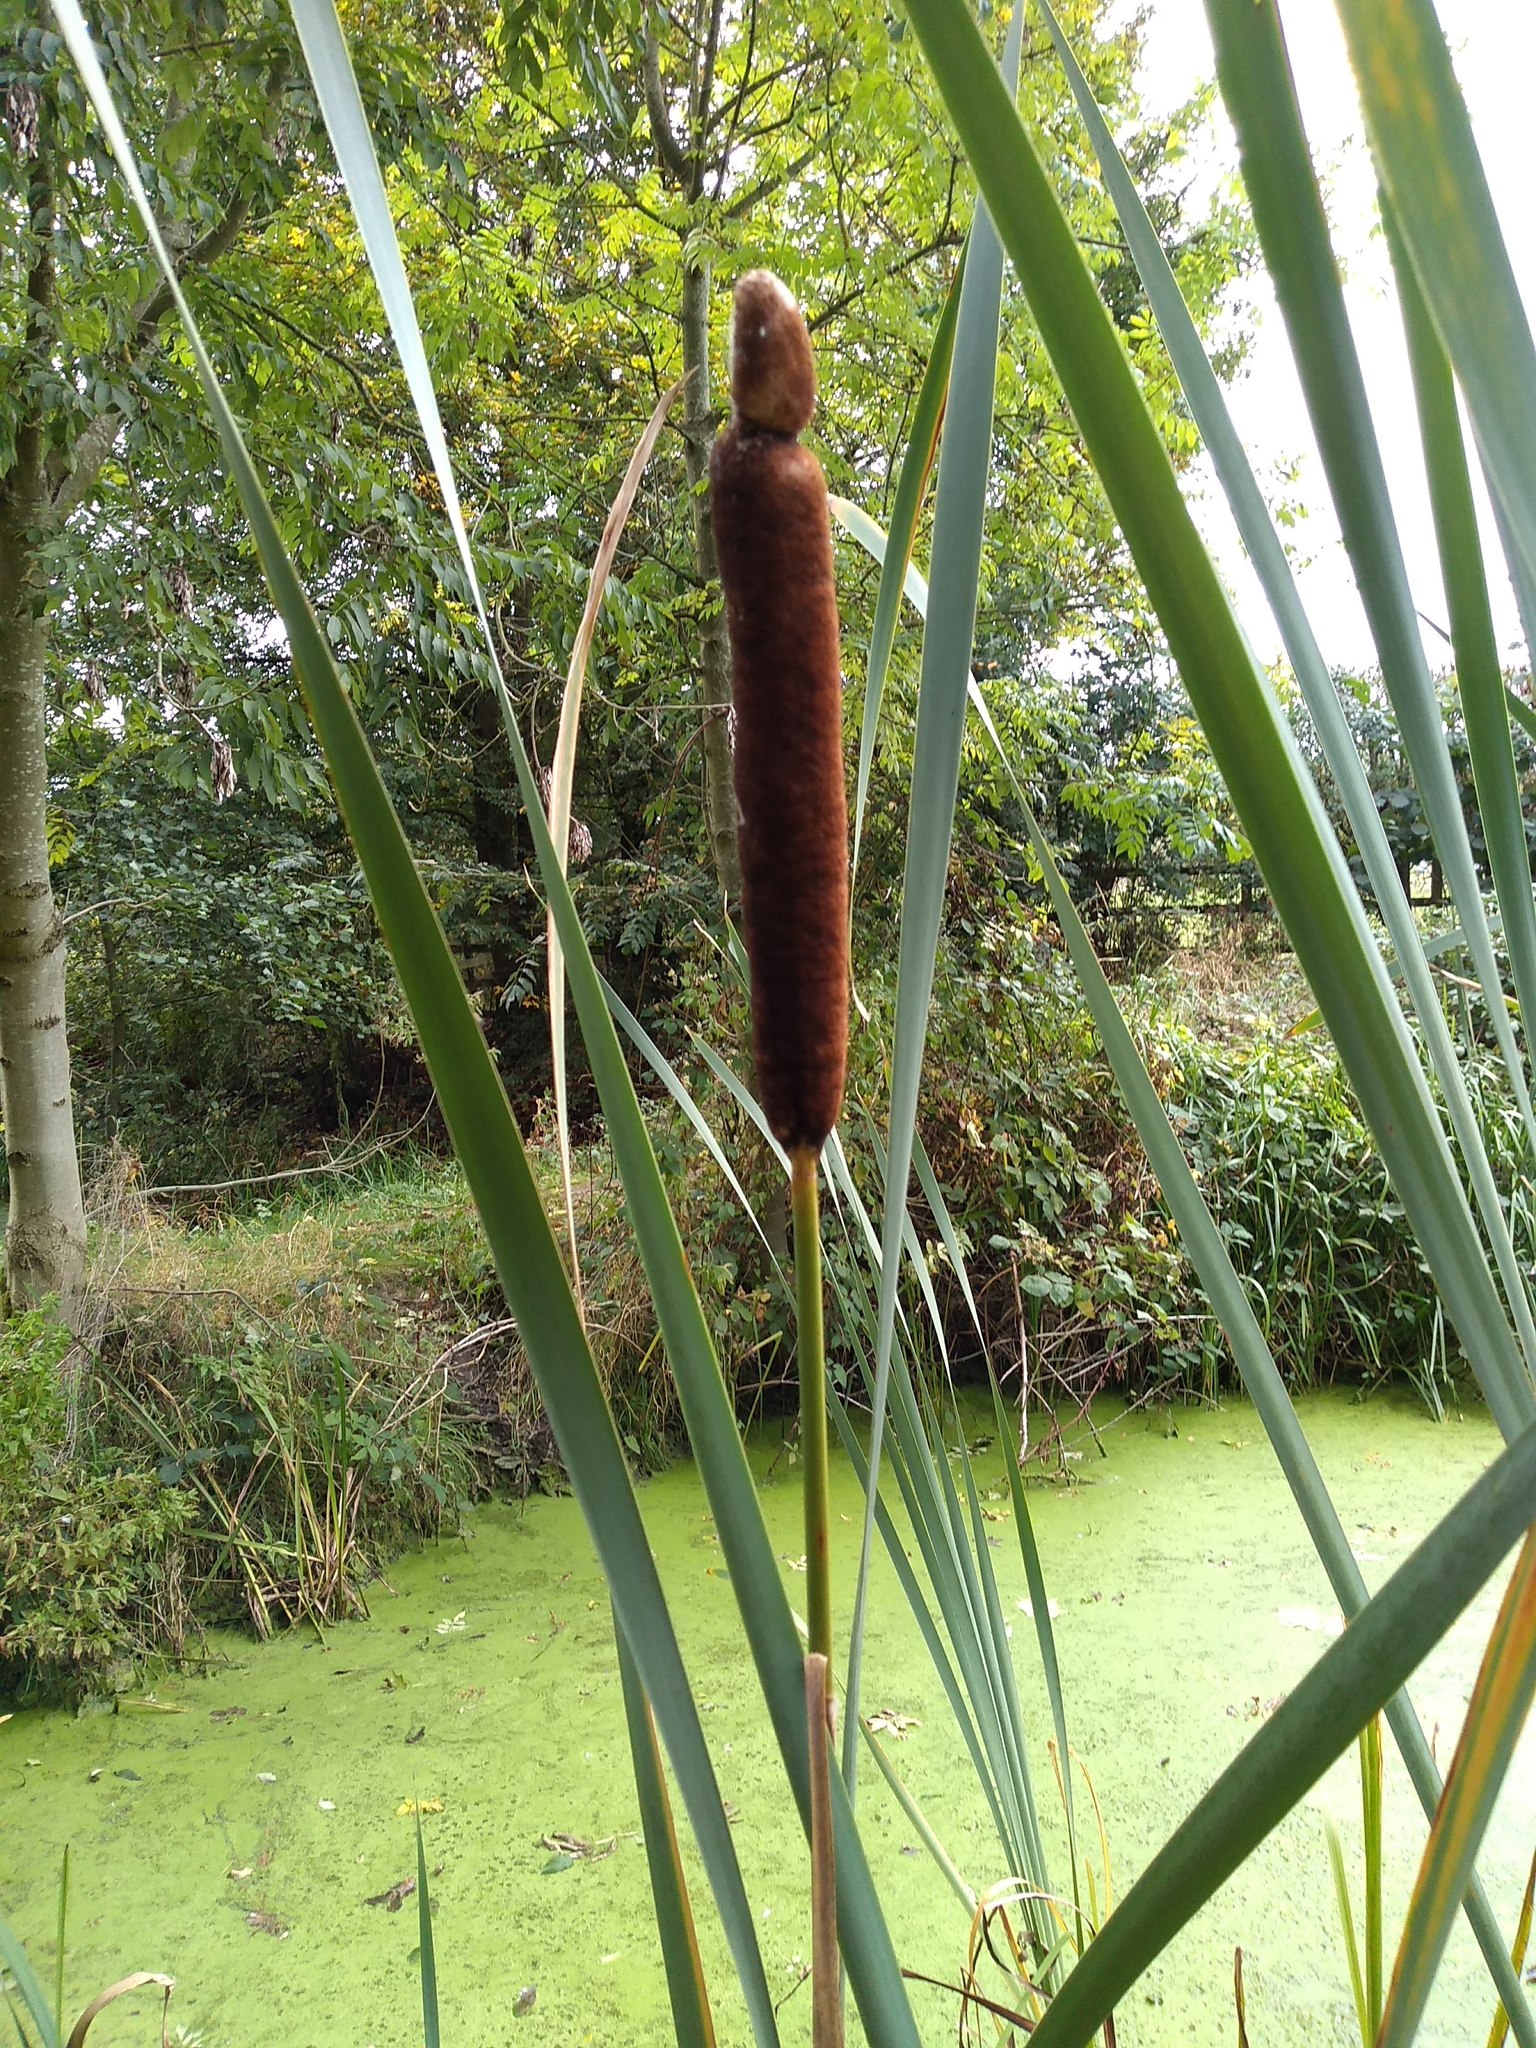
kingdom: Plantae
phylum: Tracheophyta
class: Liliopsida
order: Poales
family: Typhaceae
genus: Typha
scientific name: Typha latifolia
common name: Broadleaf cattail
